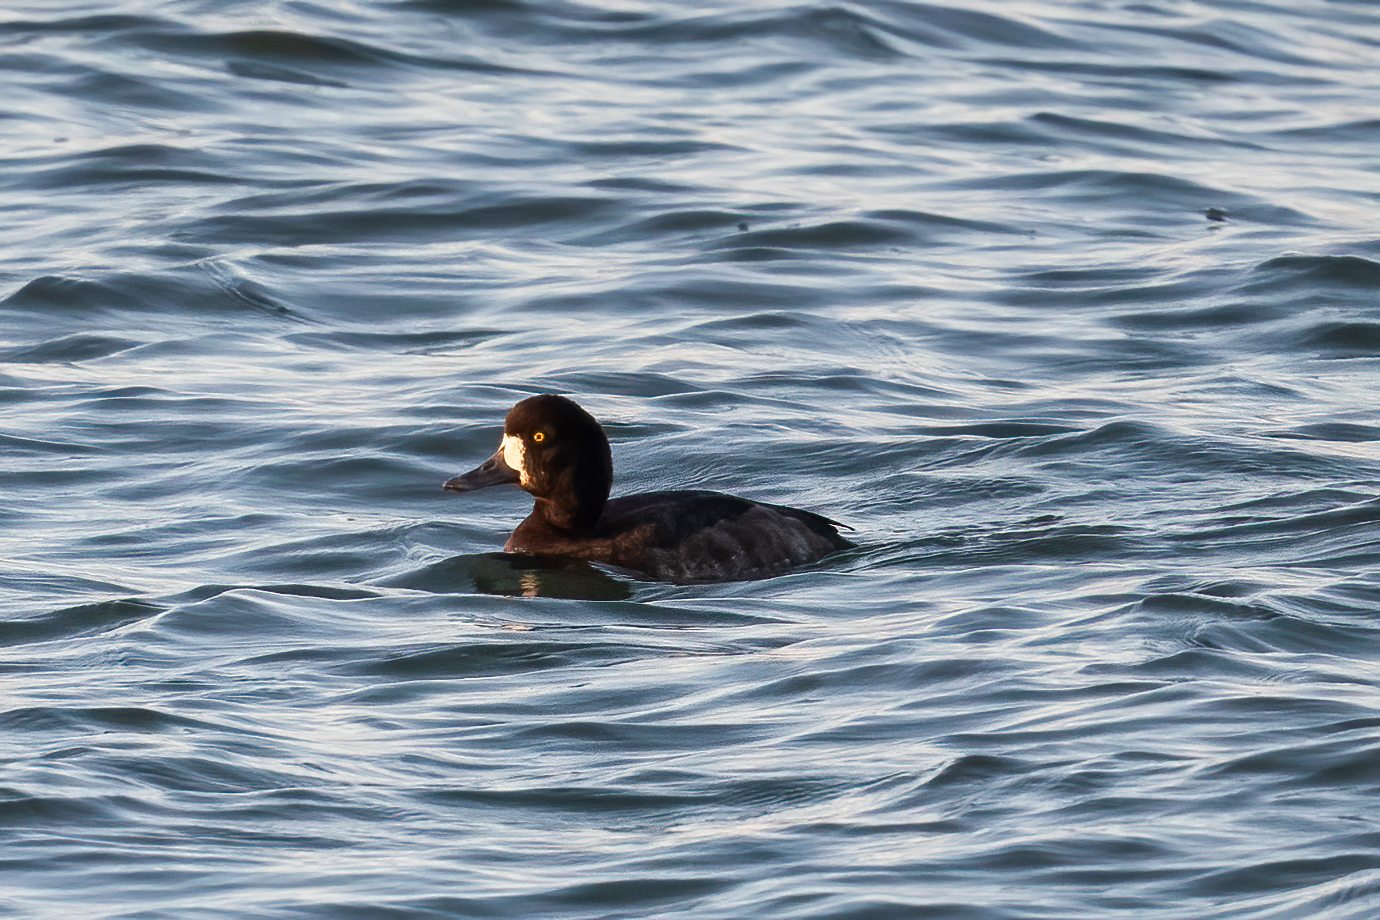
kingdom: Animalia
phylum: Chordata
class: Aves
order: Anseriformes
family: Anatidae
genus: Aythya
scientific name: Aythya marila
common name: Greater scaup
